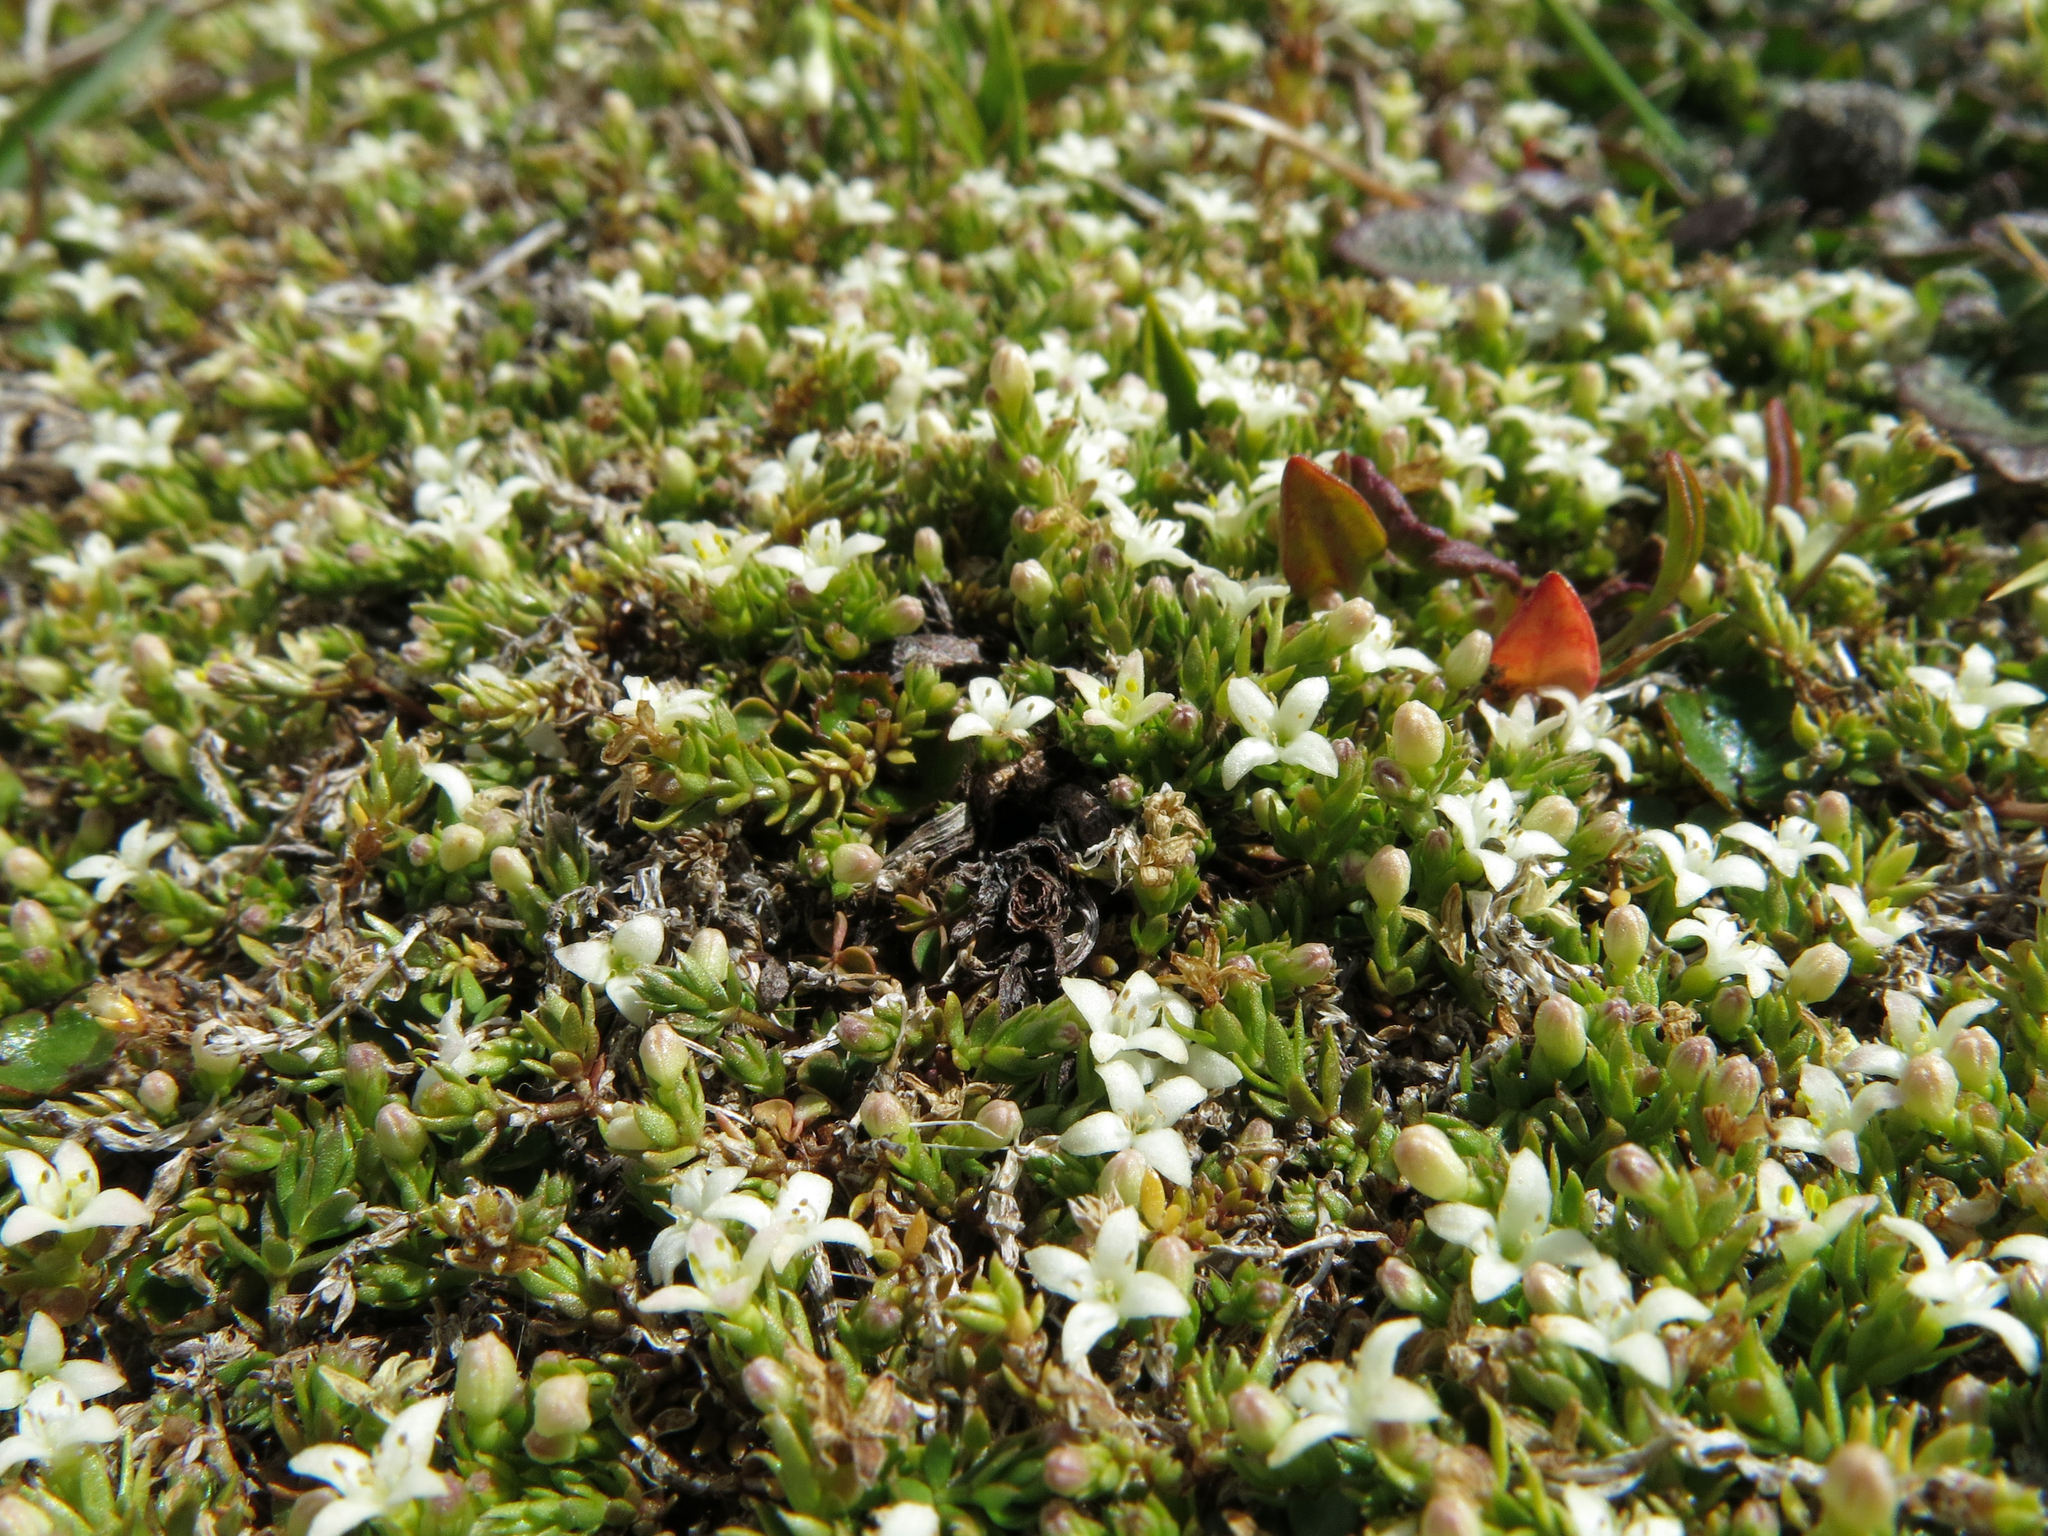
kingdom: Plantae
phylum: Tracheophyta
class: Magnoliopsida
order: Gentianales
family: Rubiaceae
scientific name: Rubiaceae
